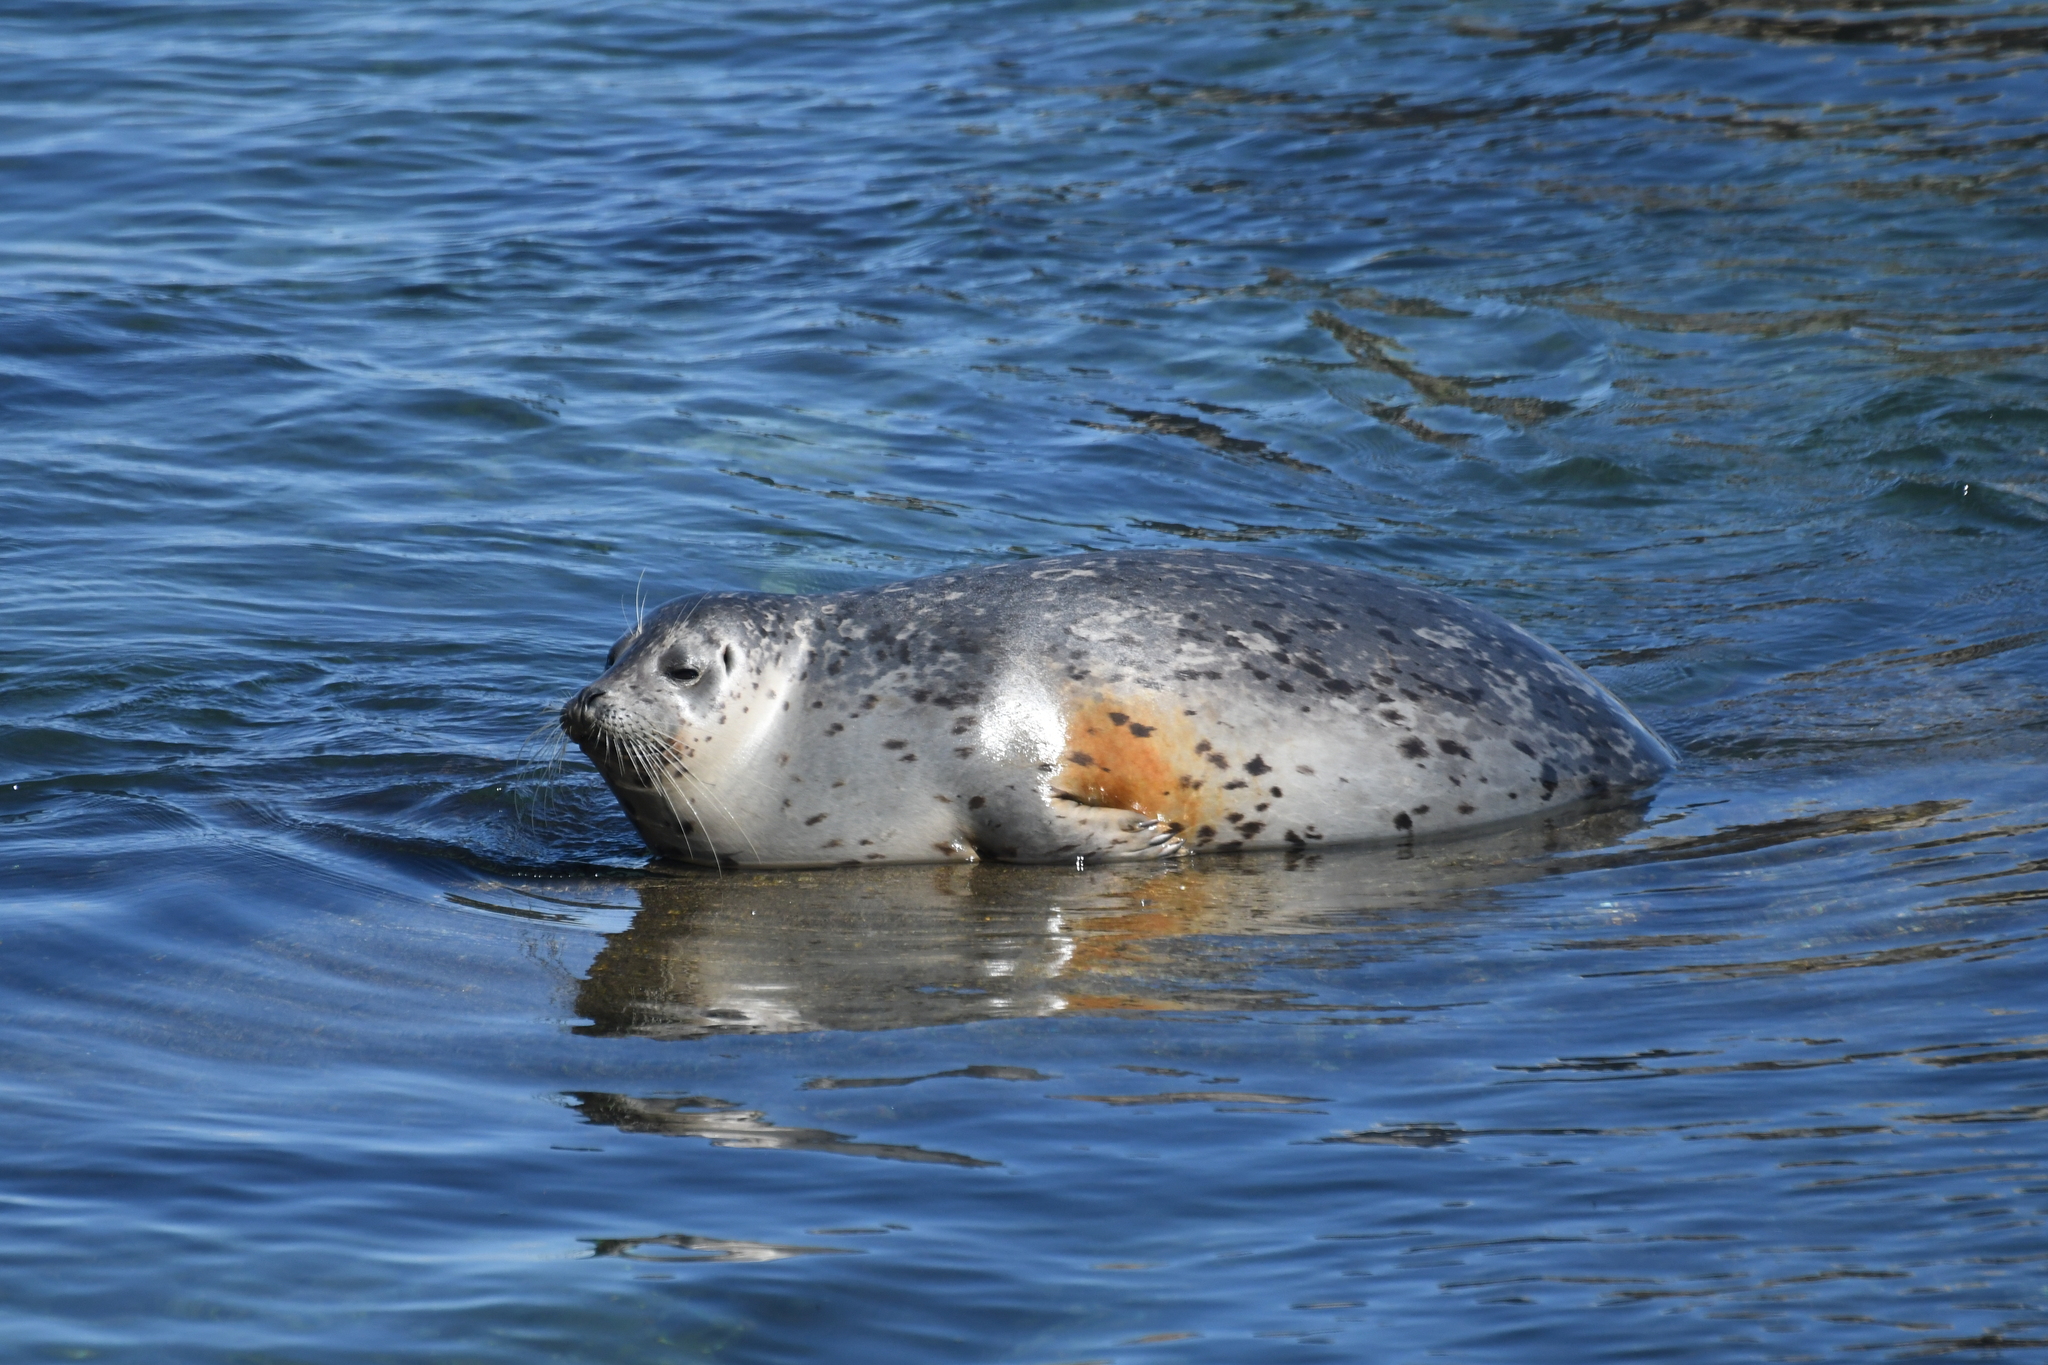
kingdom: Animalia
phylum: Chordata
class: Mammalia
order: Carnivora
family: Phocidae
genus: Phoca
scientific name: Phoca vitulina
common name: Harbor seal
